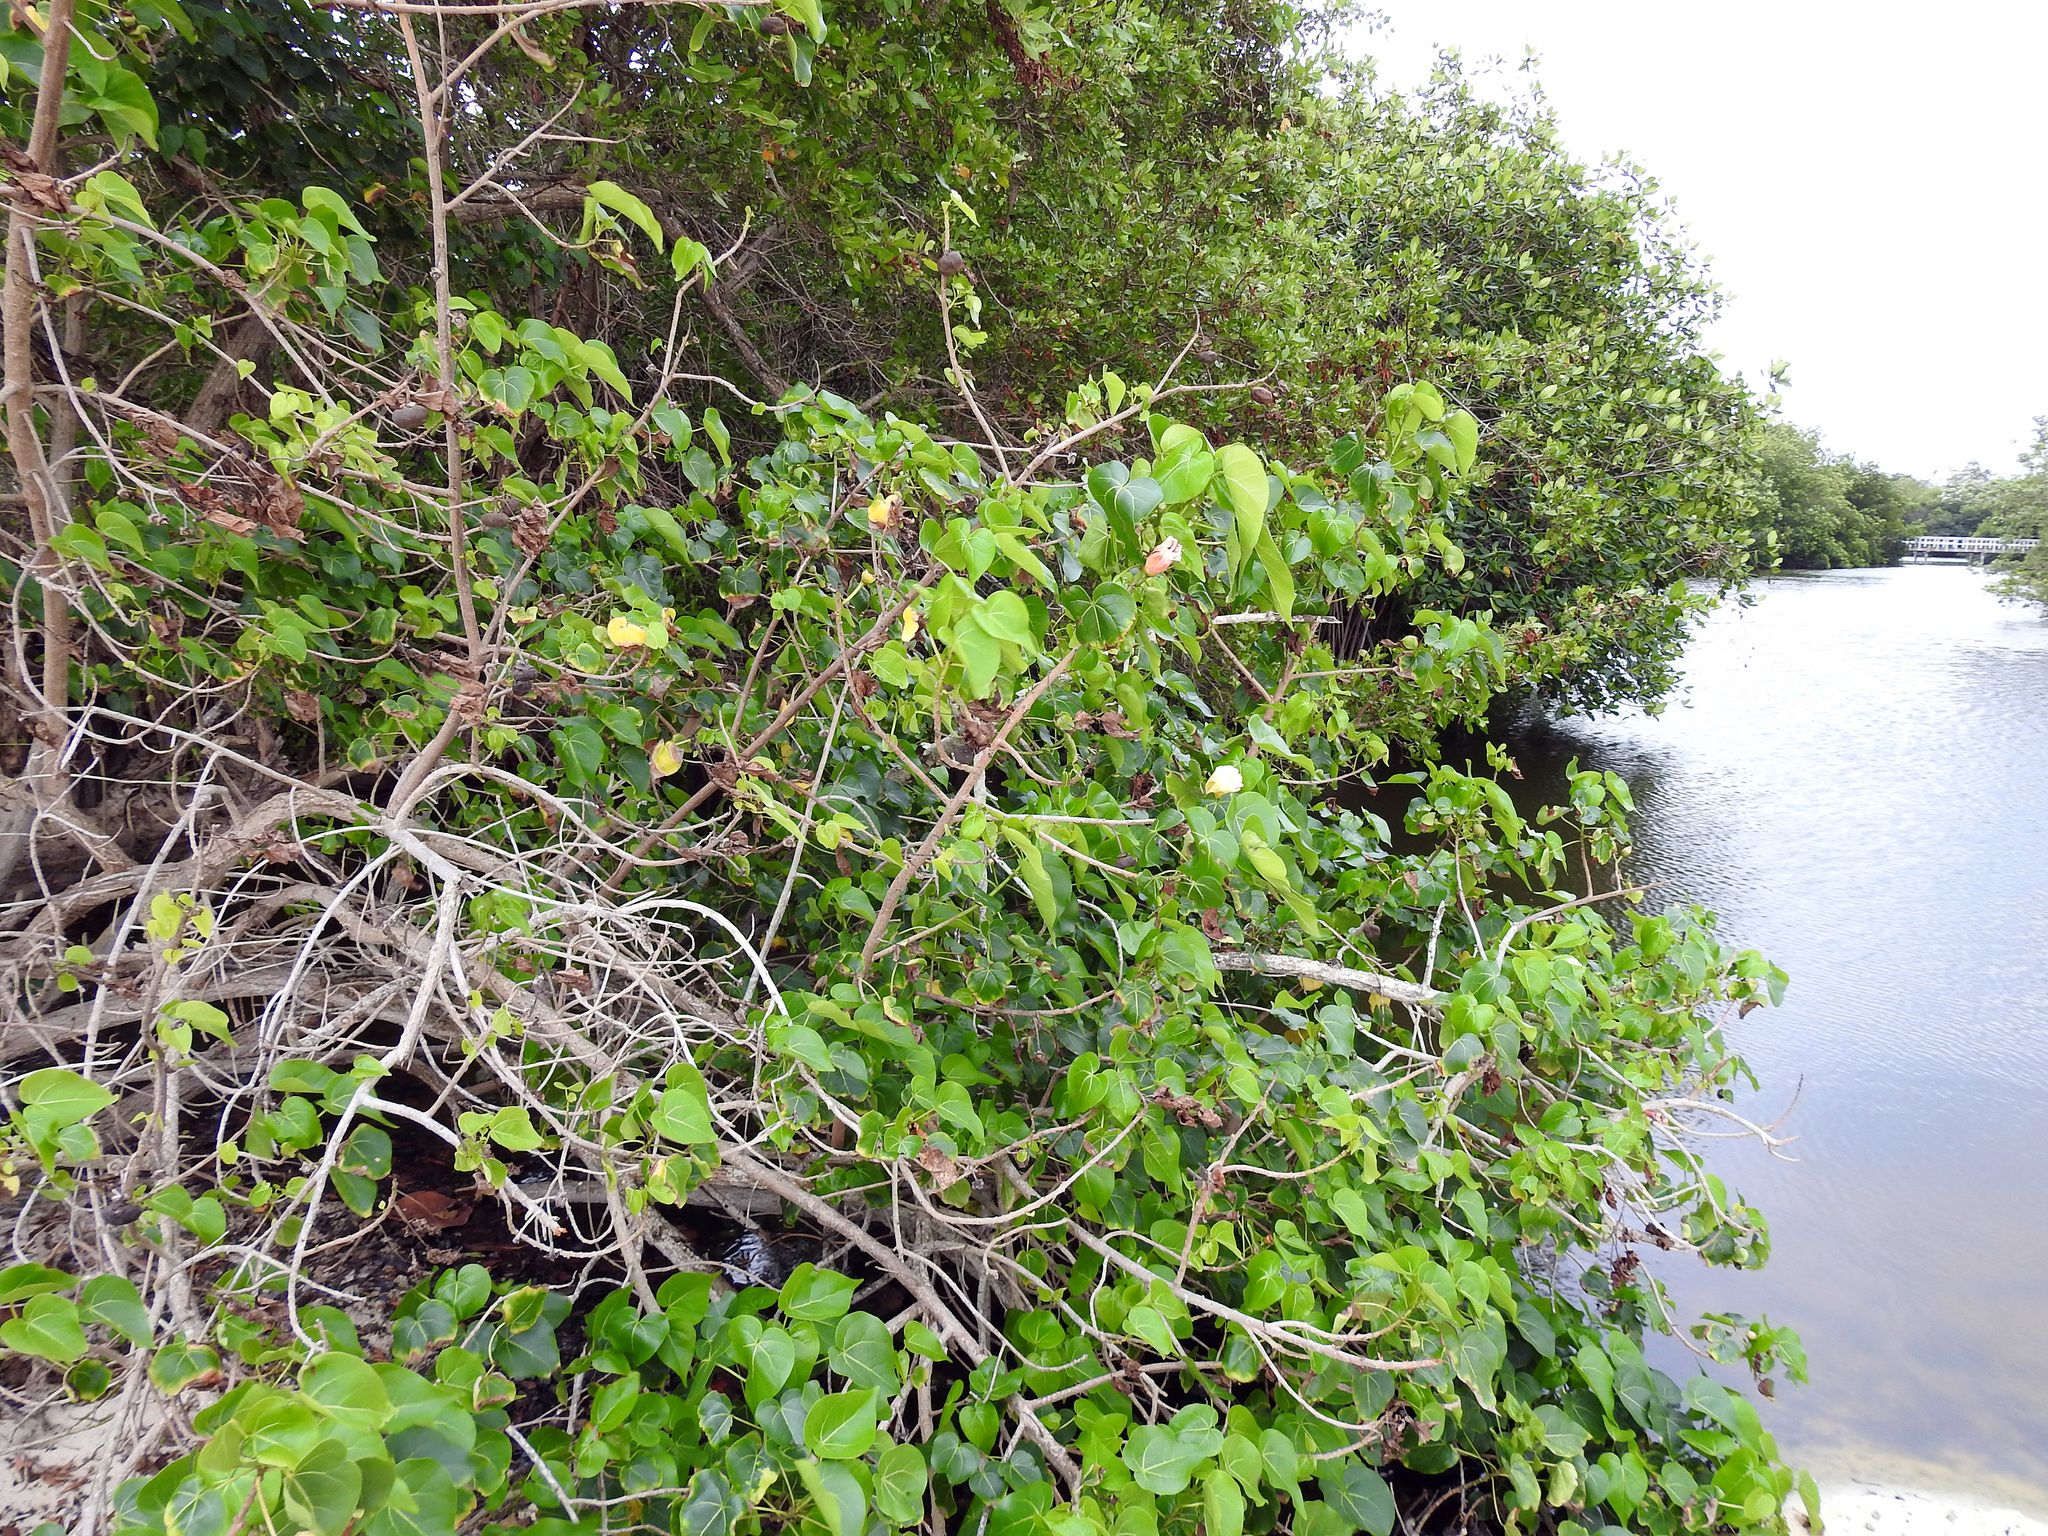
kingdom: Plantae
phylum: Tracheophyta
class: Magnoliopsida
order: Malvales
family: Malvaceae
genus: Thespesia
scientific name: Thespesia populnea
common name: Seaside mahoe
